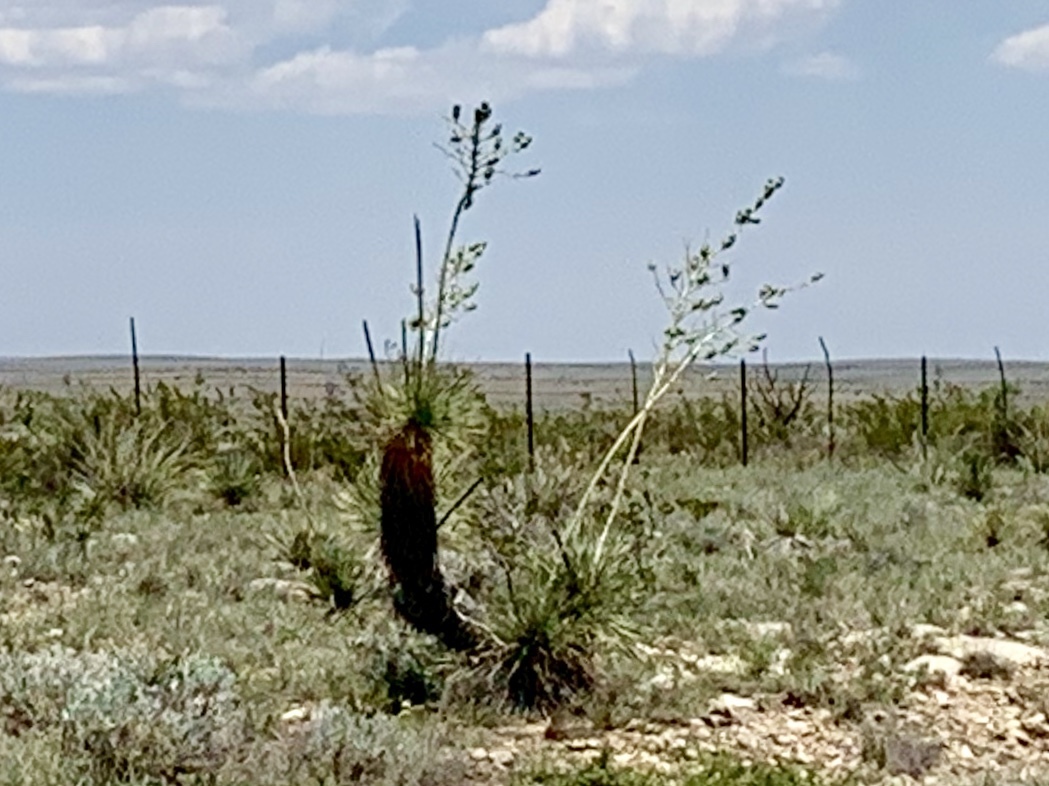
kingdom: Plantae
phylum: Tracheophyta
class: Liliopsida
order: Asparagales
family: Asparagaceae
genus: Yucca
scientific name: Yucca elata
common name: Palmella
